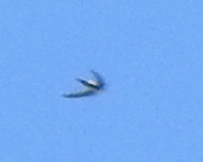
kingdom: Animalia
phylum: Chordata
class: Aves
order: Apodiformes
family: Apodidae
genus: Aeronautes
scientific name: Aeronautes saxatalis
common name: White-throated swift
